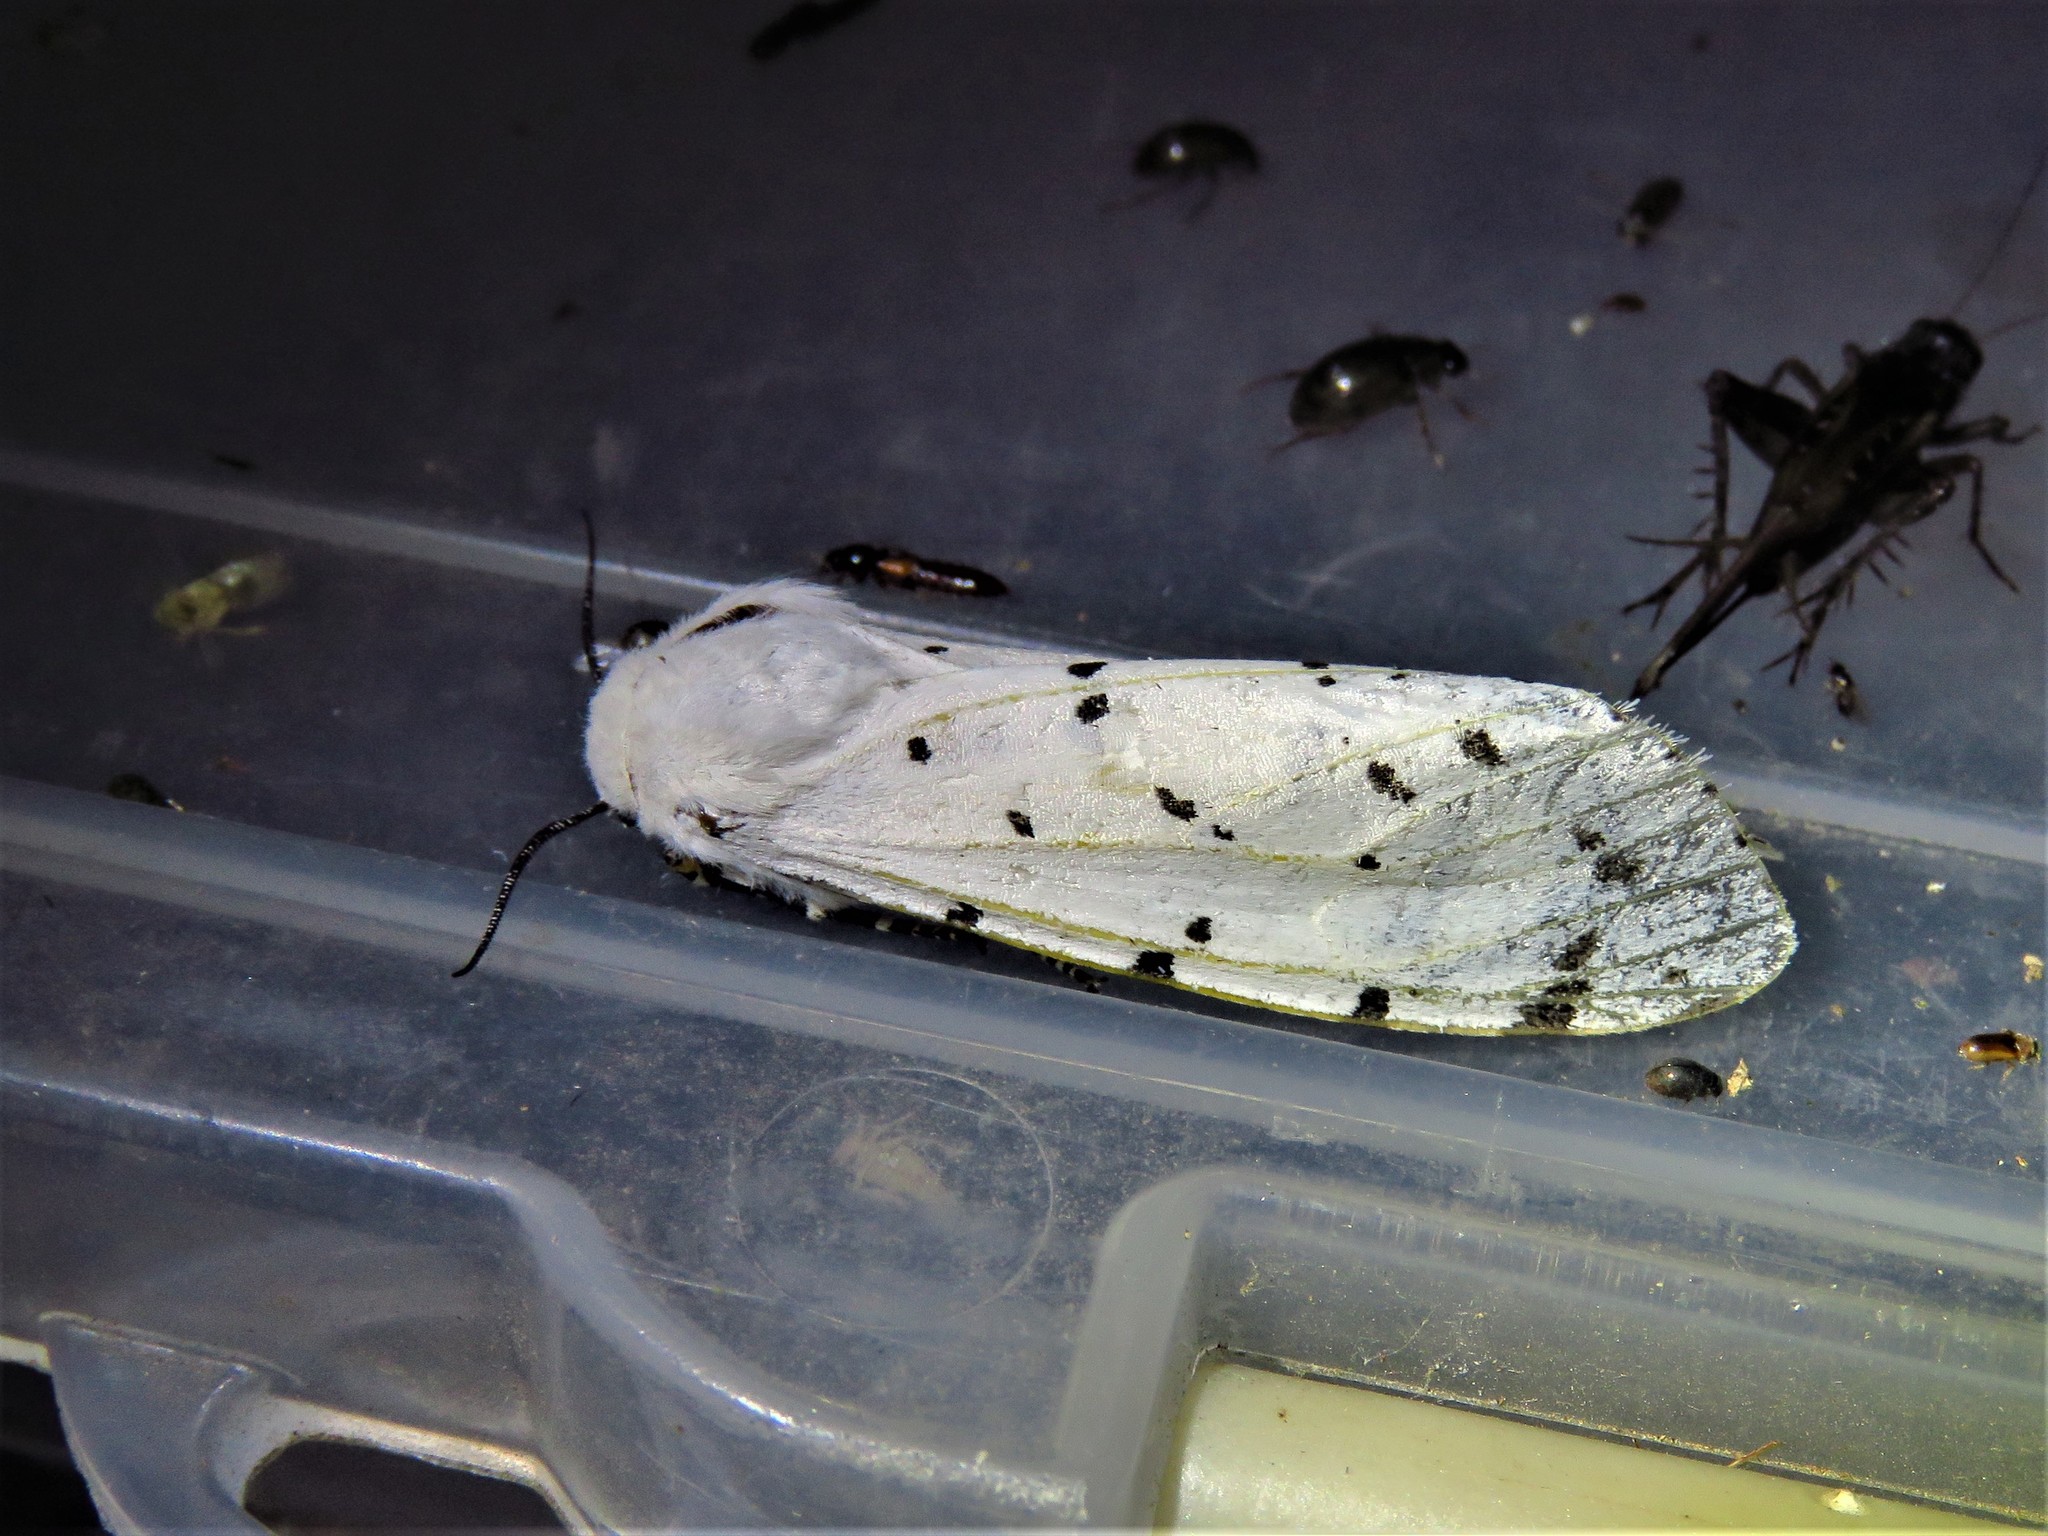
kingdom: Animalia
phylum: Arthropoda
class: Insecta
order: Lepidoptera
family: Erebidae
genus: Estigmene
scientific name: Estigmene acrea
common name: Salt marsh moth
